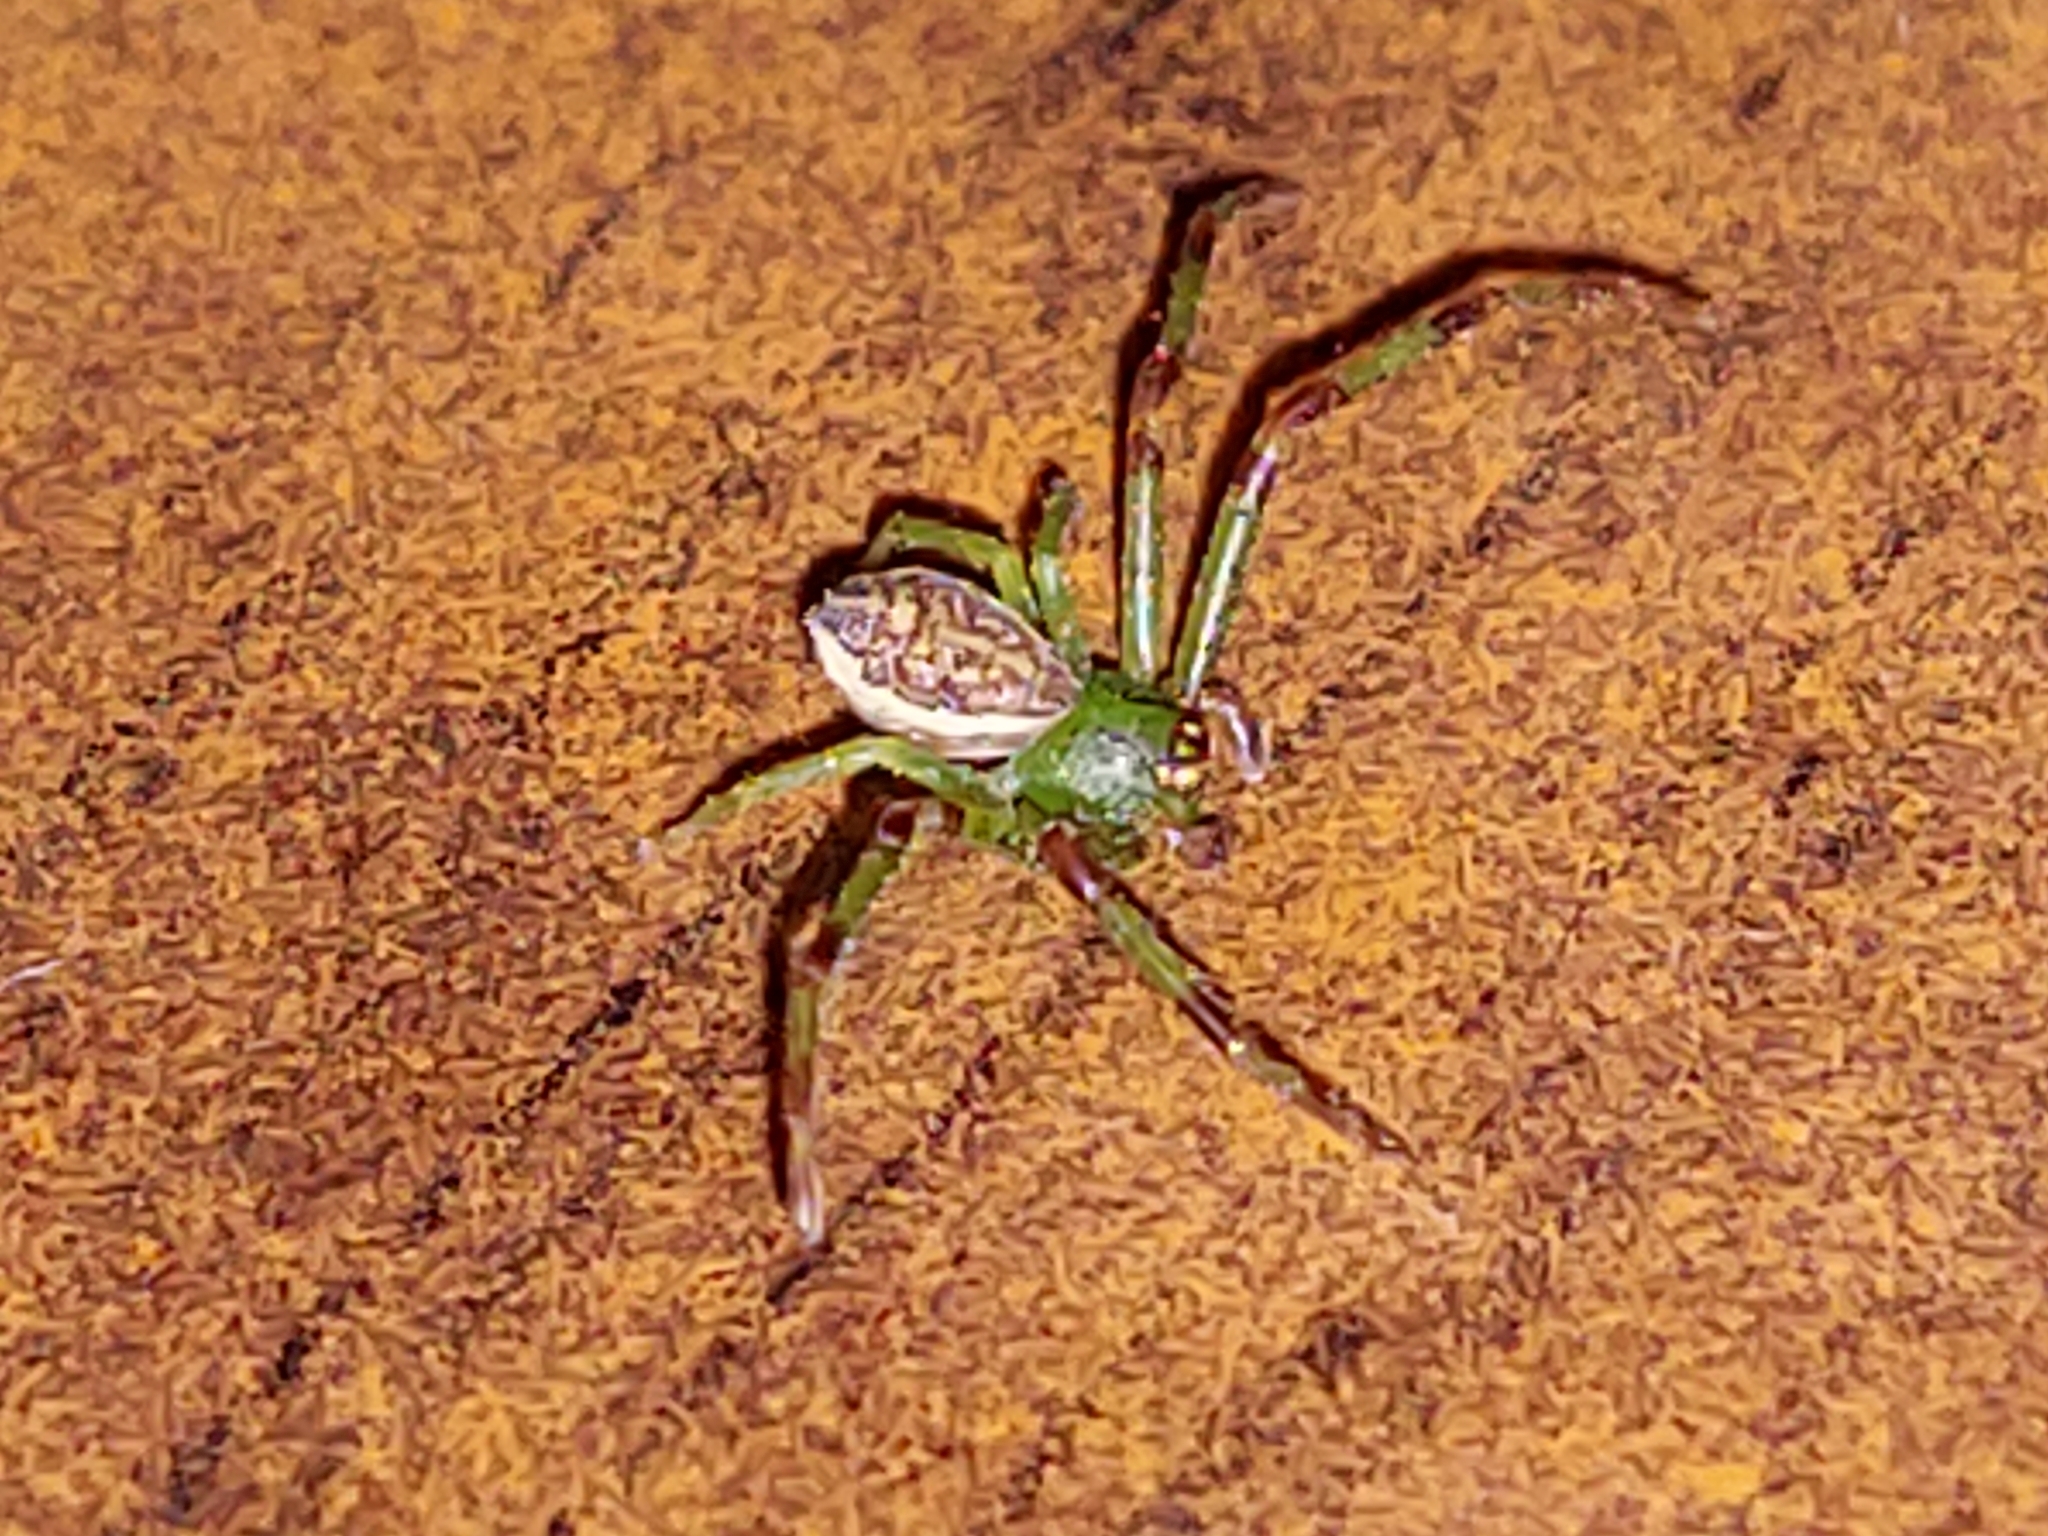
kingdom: Animalia
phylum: Arthropoda
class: Arachnida
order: Araneae
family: Thomisidae
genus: Diaea
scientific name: Diaea dorsata
